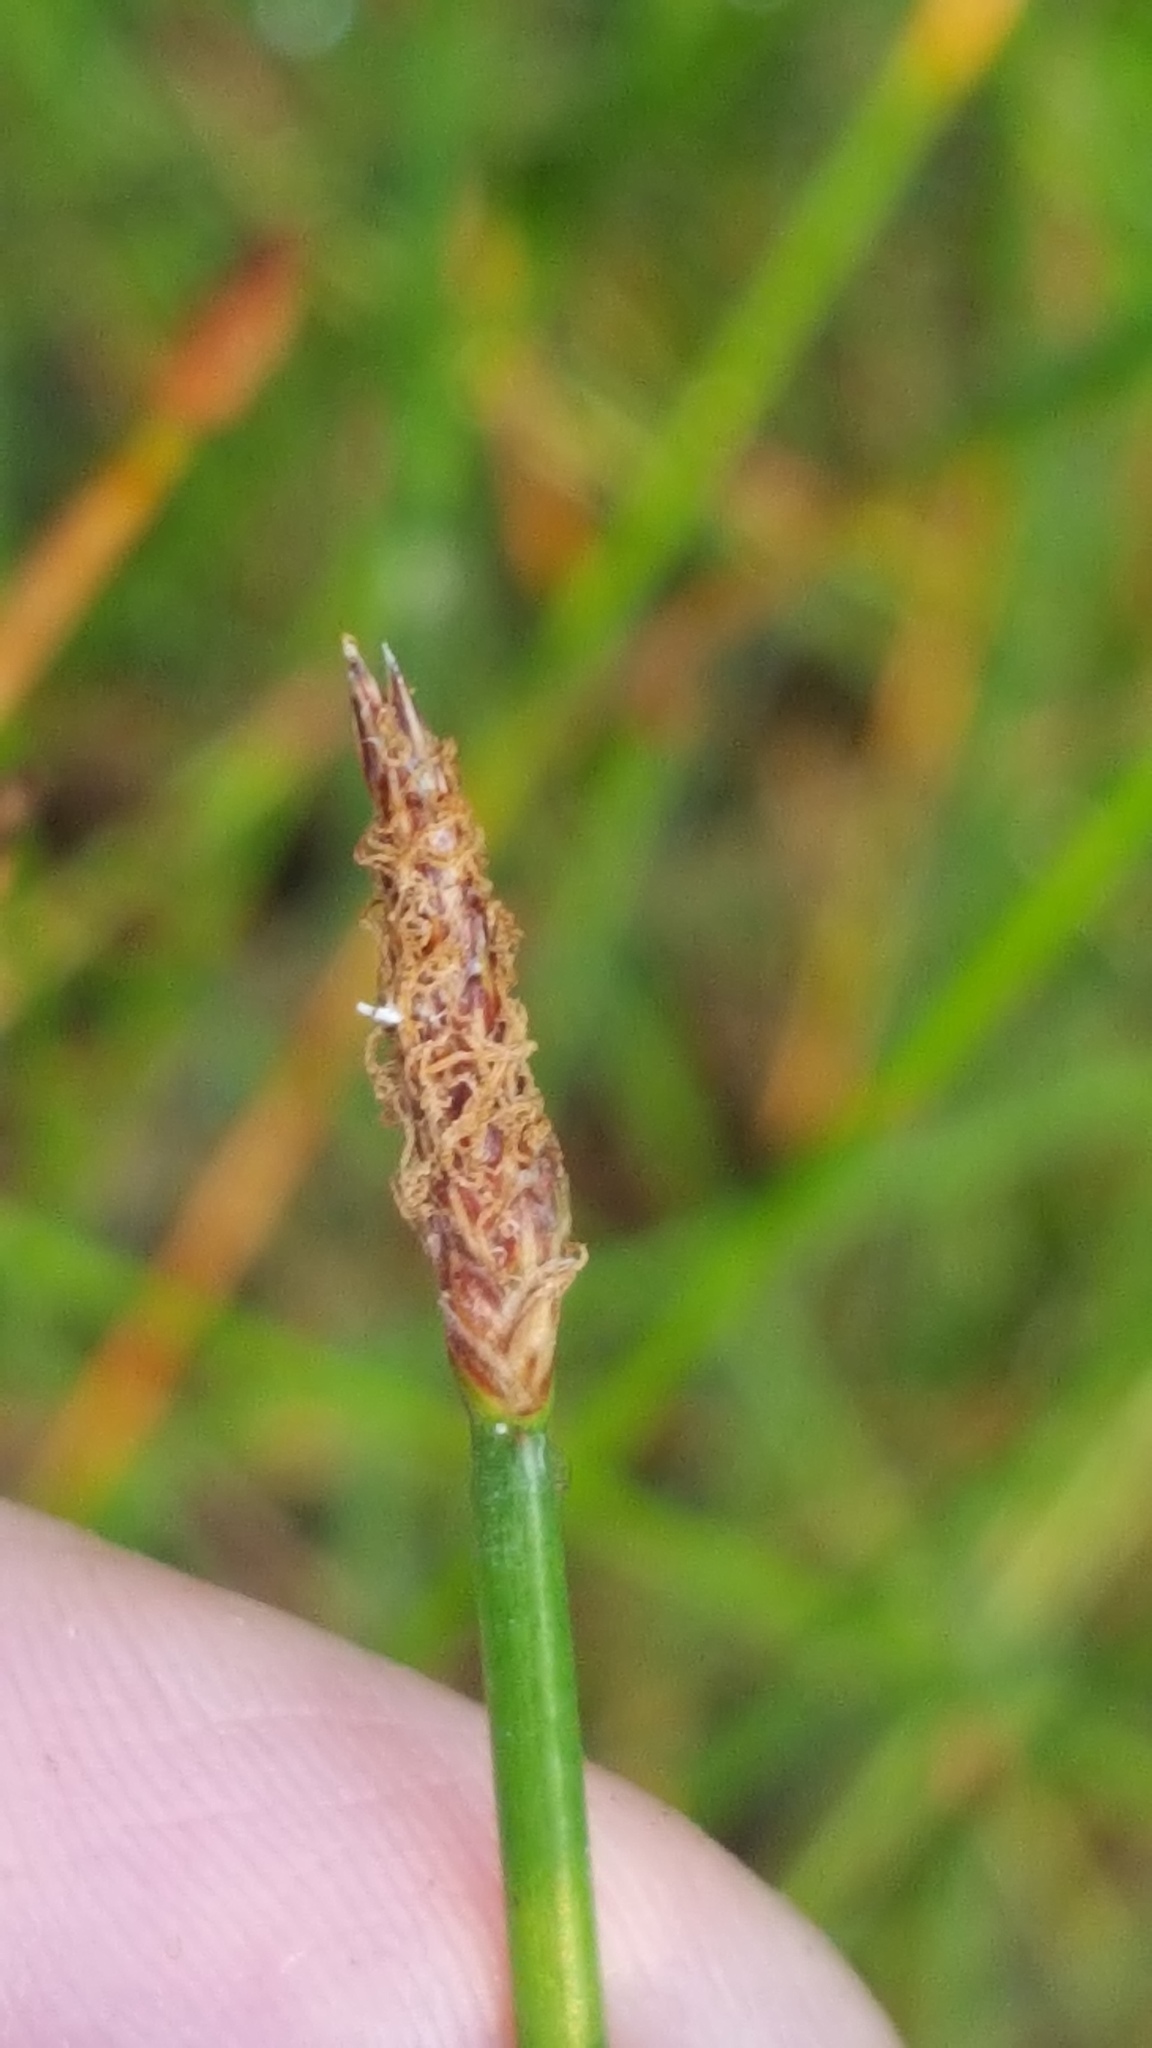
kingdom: Plantae
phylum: Tracheophyta
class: Liliopsida
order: Poales
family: Cyperaceae
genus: Eleocharis
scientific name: Eleocharis palustris
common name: Common spike-rush
